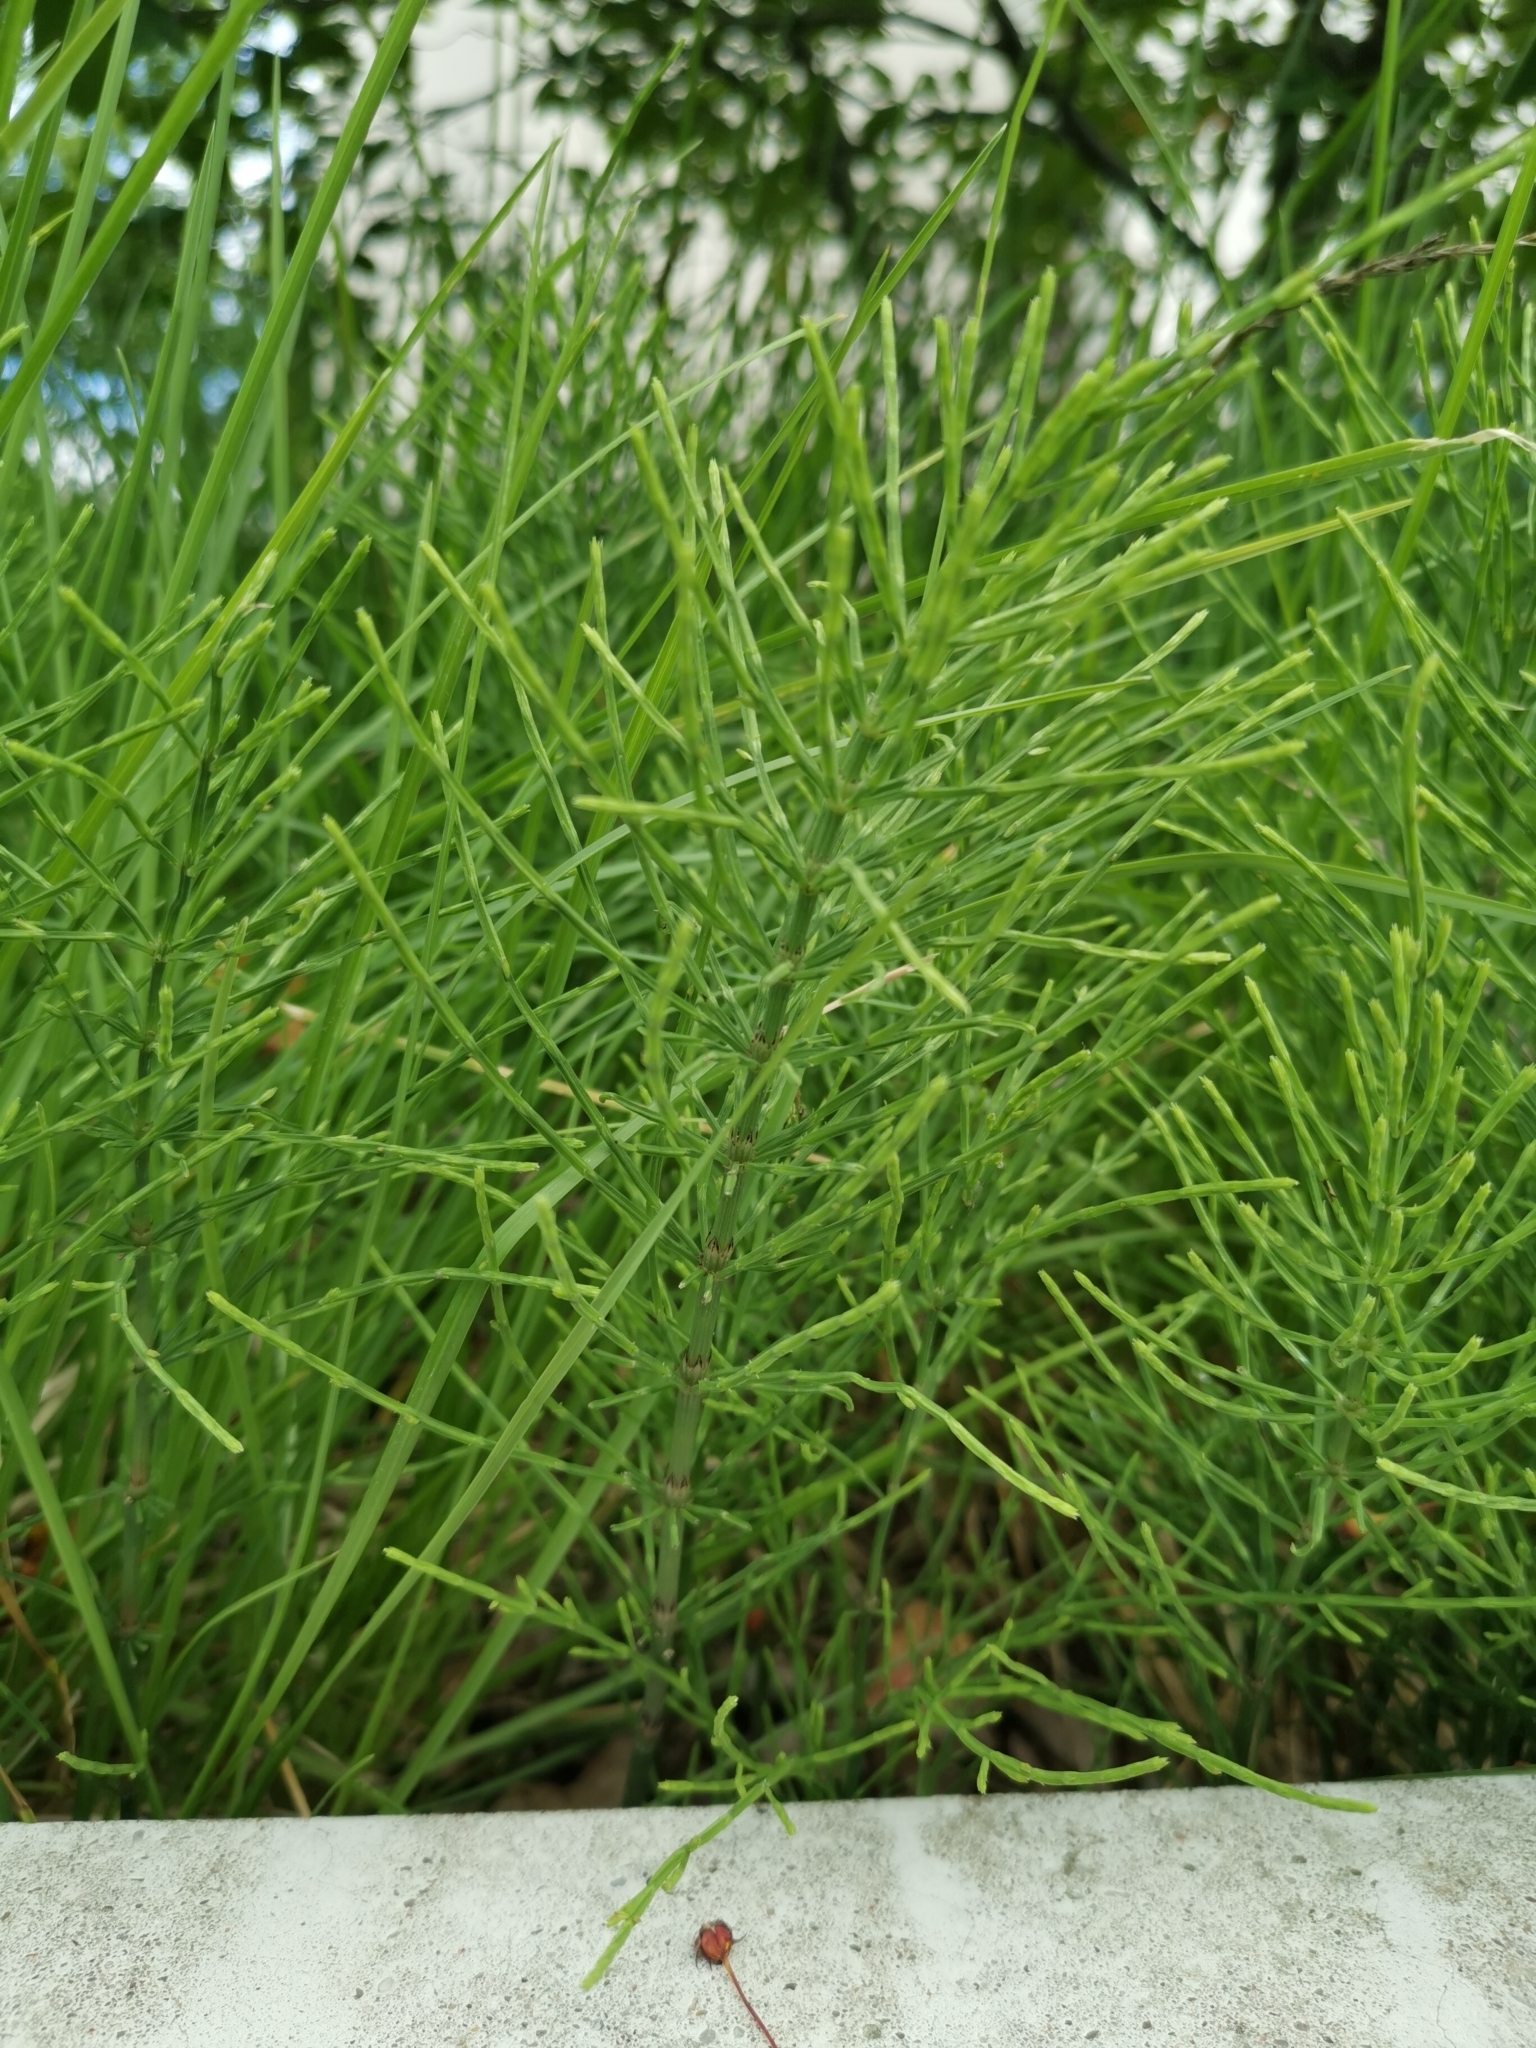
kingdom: Plantae
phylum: Tracheophyta
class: Polypodiopsida
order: Equisetales
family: Equisetaceae
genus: Equisetum
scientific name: Equisetum arvense
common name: Field horsetail
